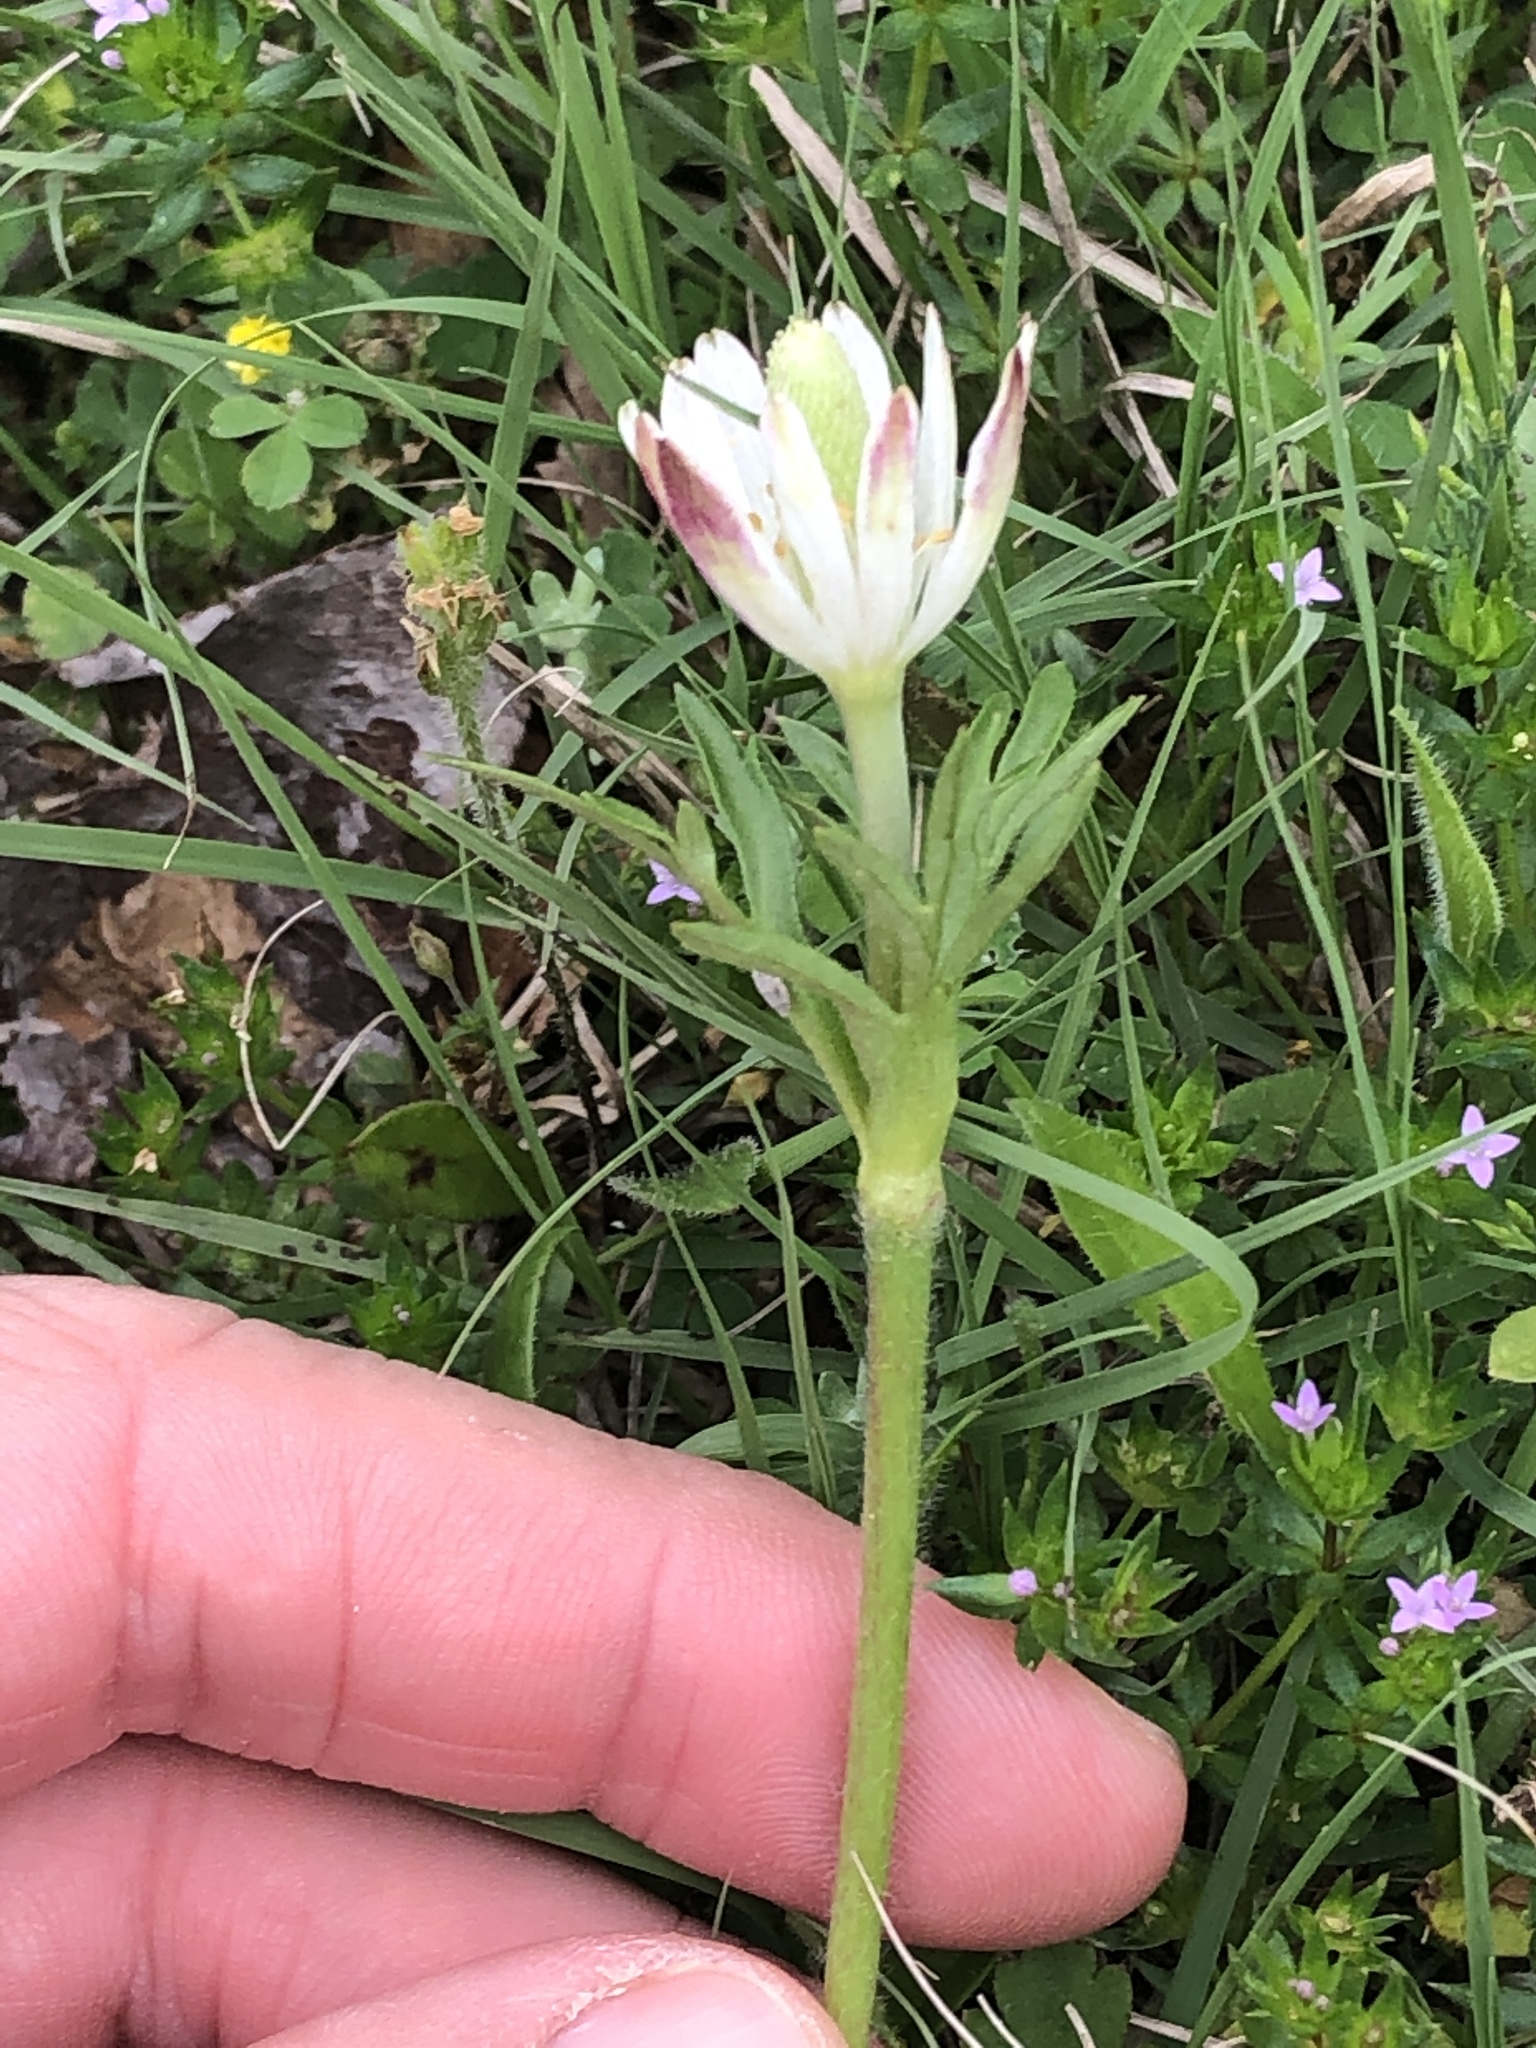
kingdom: Plantae
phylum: Tracheophyta
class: Magnoliopsida
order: Ranunculales
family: Ranunculaceae
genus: Anemone
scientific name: Anemone berlandieri
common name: Ten-petal anemone
